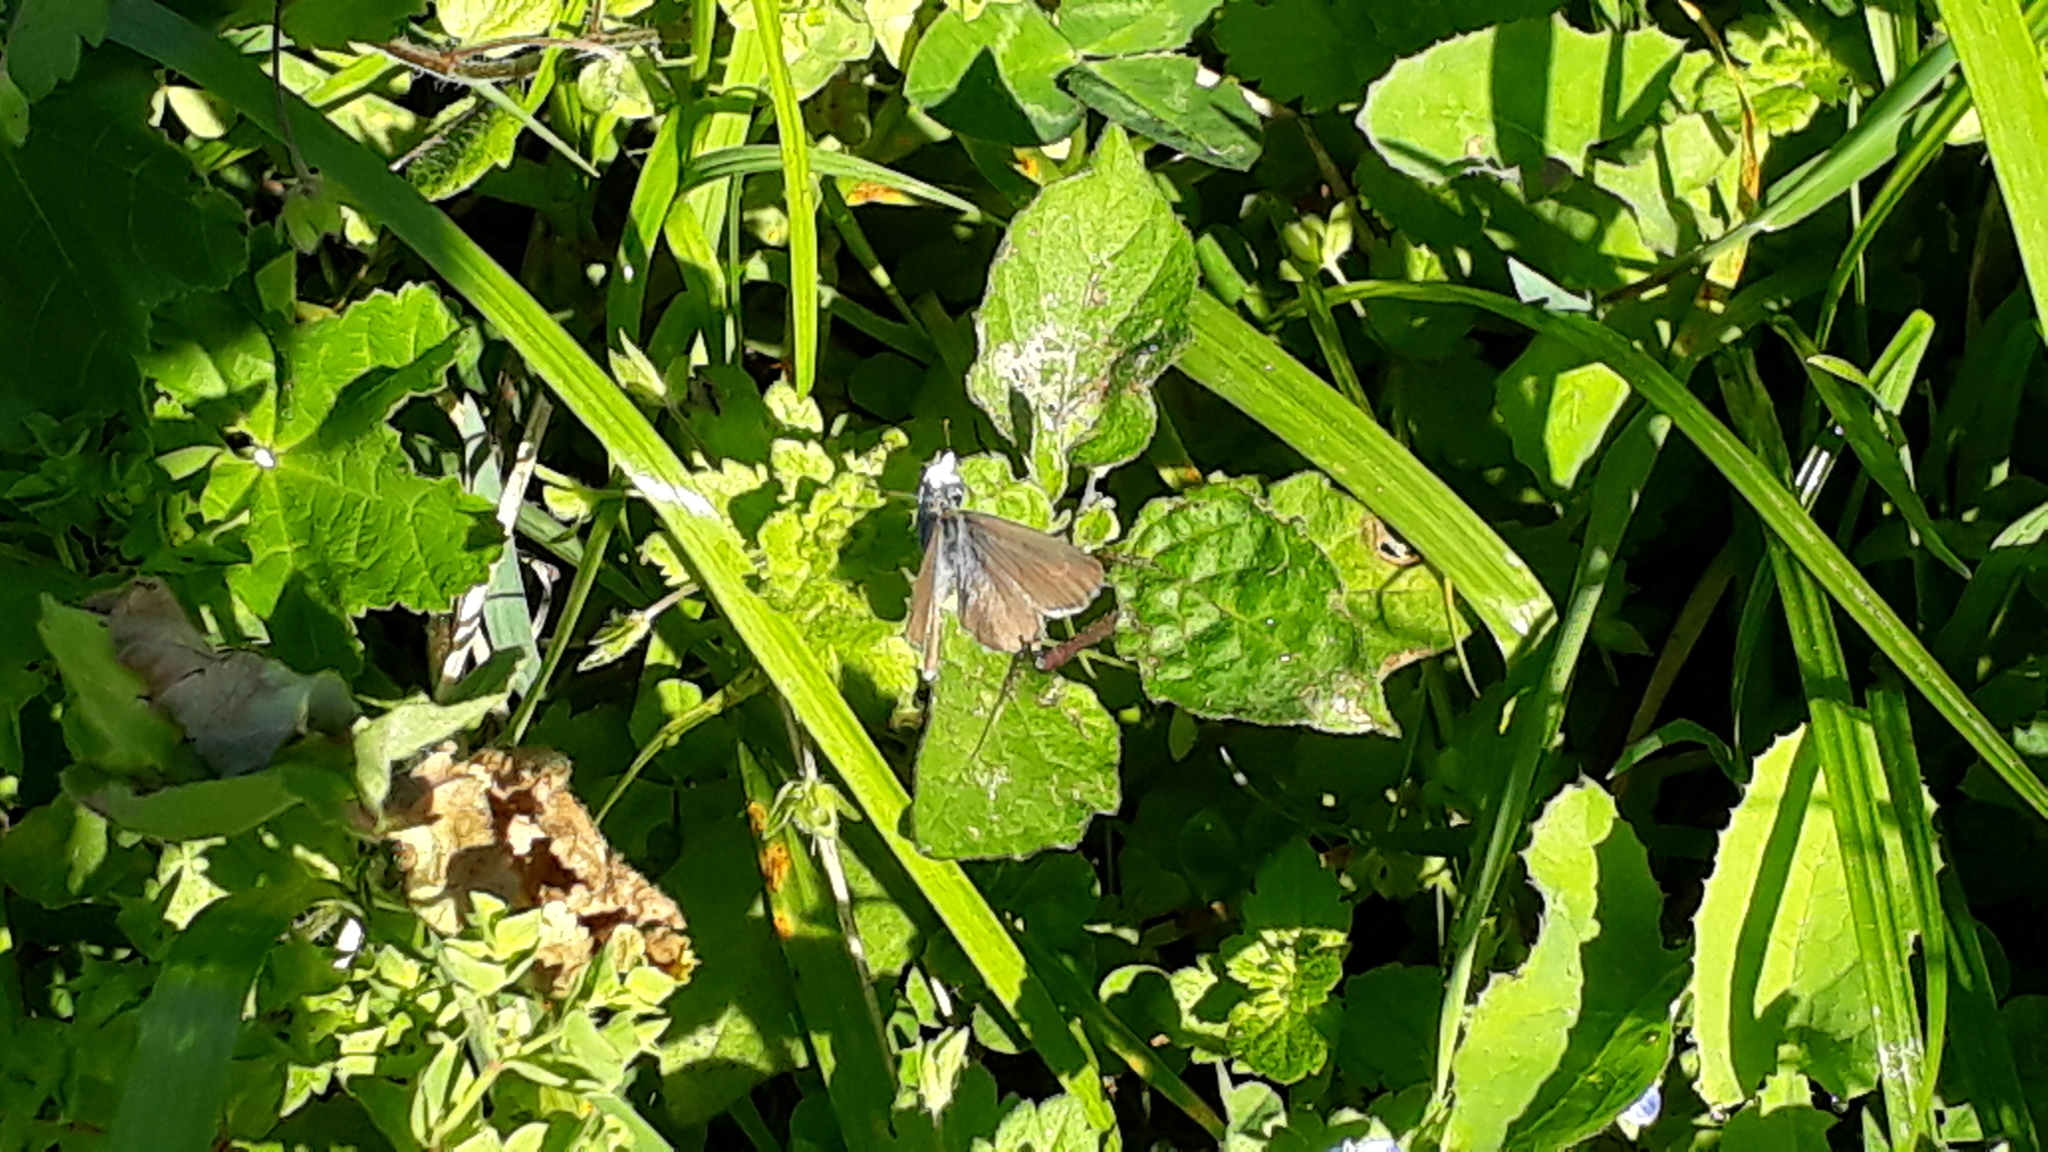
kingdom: Animalia
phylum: Arthropoda
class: Insecta
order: Lepidoptera
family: Lycaenidae
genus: Zizina
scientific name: Zizina labradus
